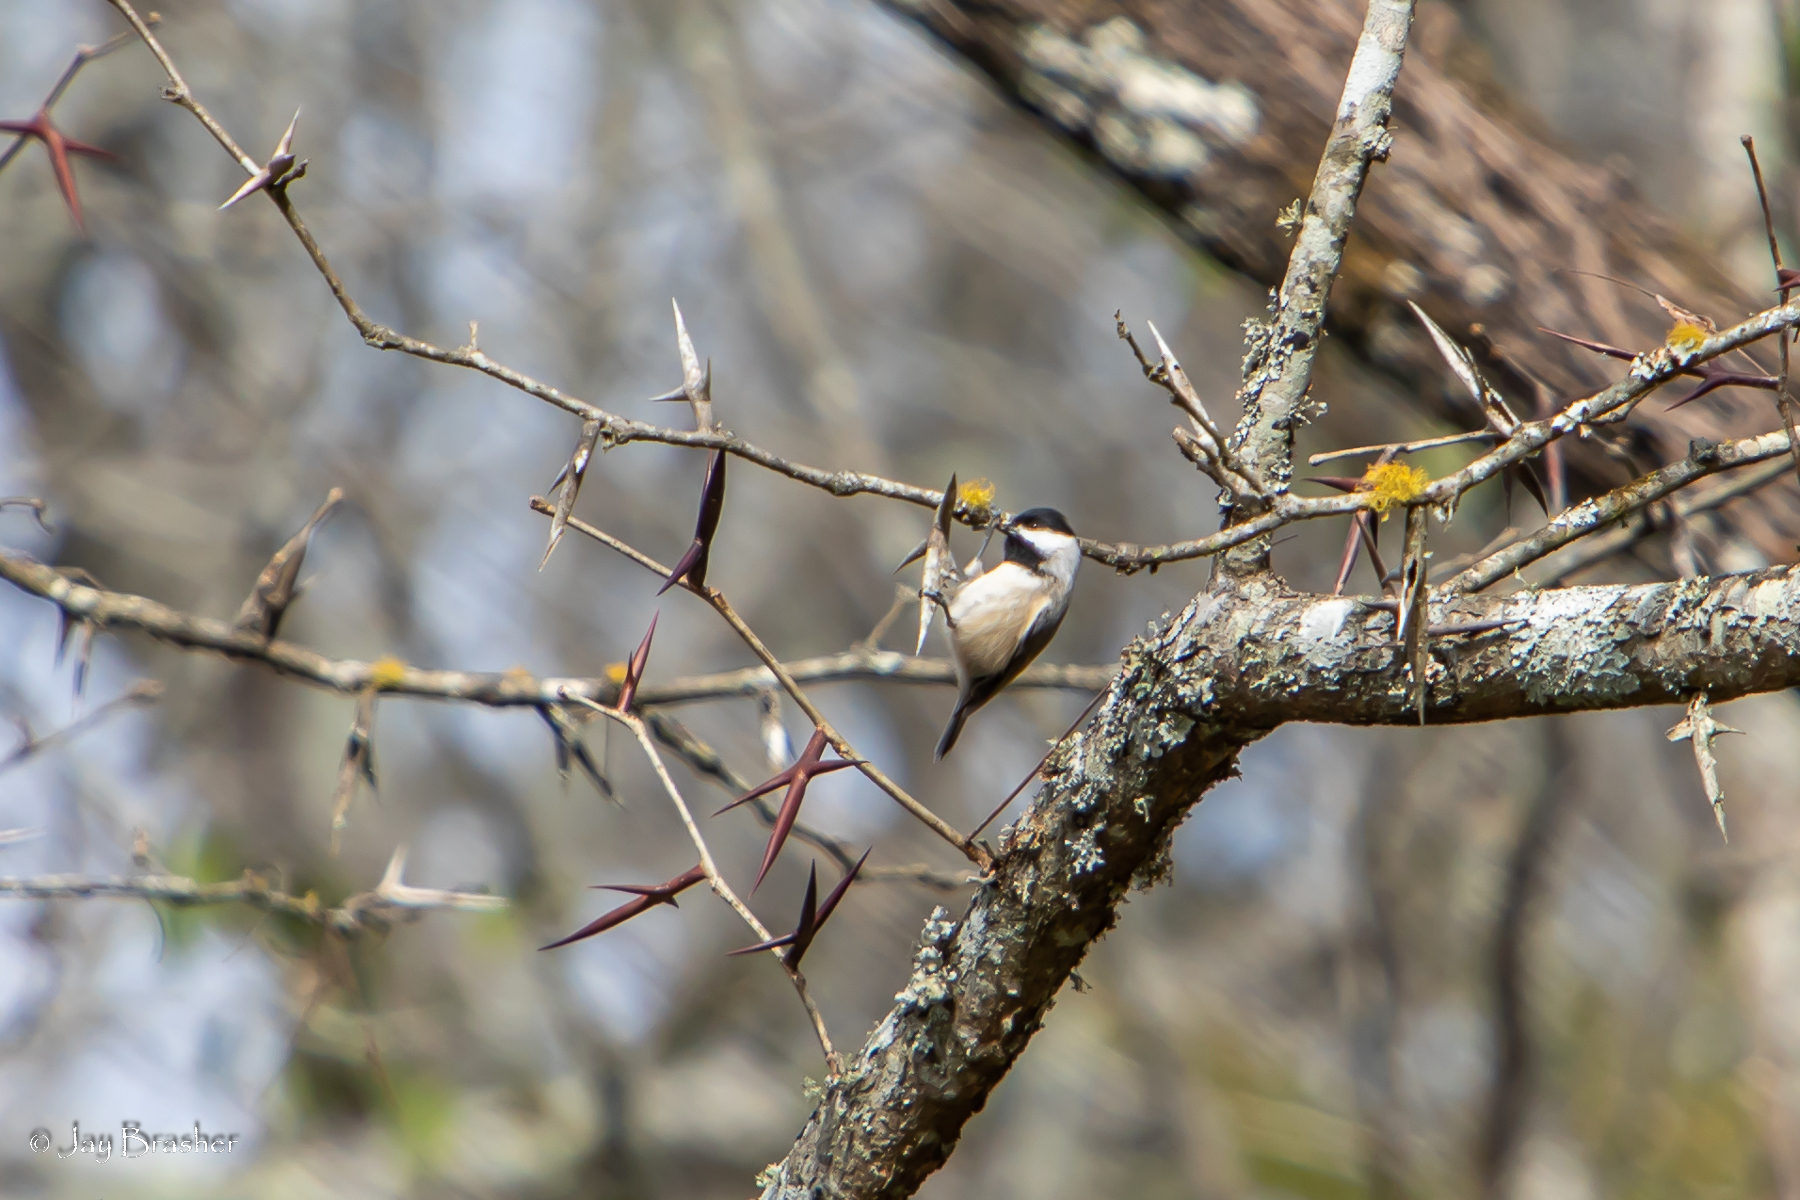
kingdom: Animalia
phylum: Chordata
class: Aves
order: Passeriformes
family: Paridae
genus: Poecile
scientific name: Poecile carolinensis
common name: Carolina chickadee
